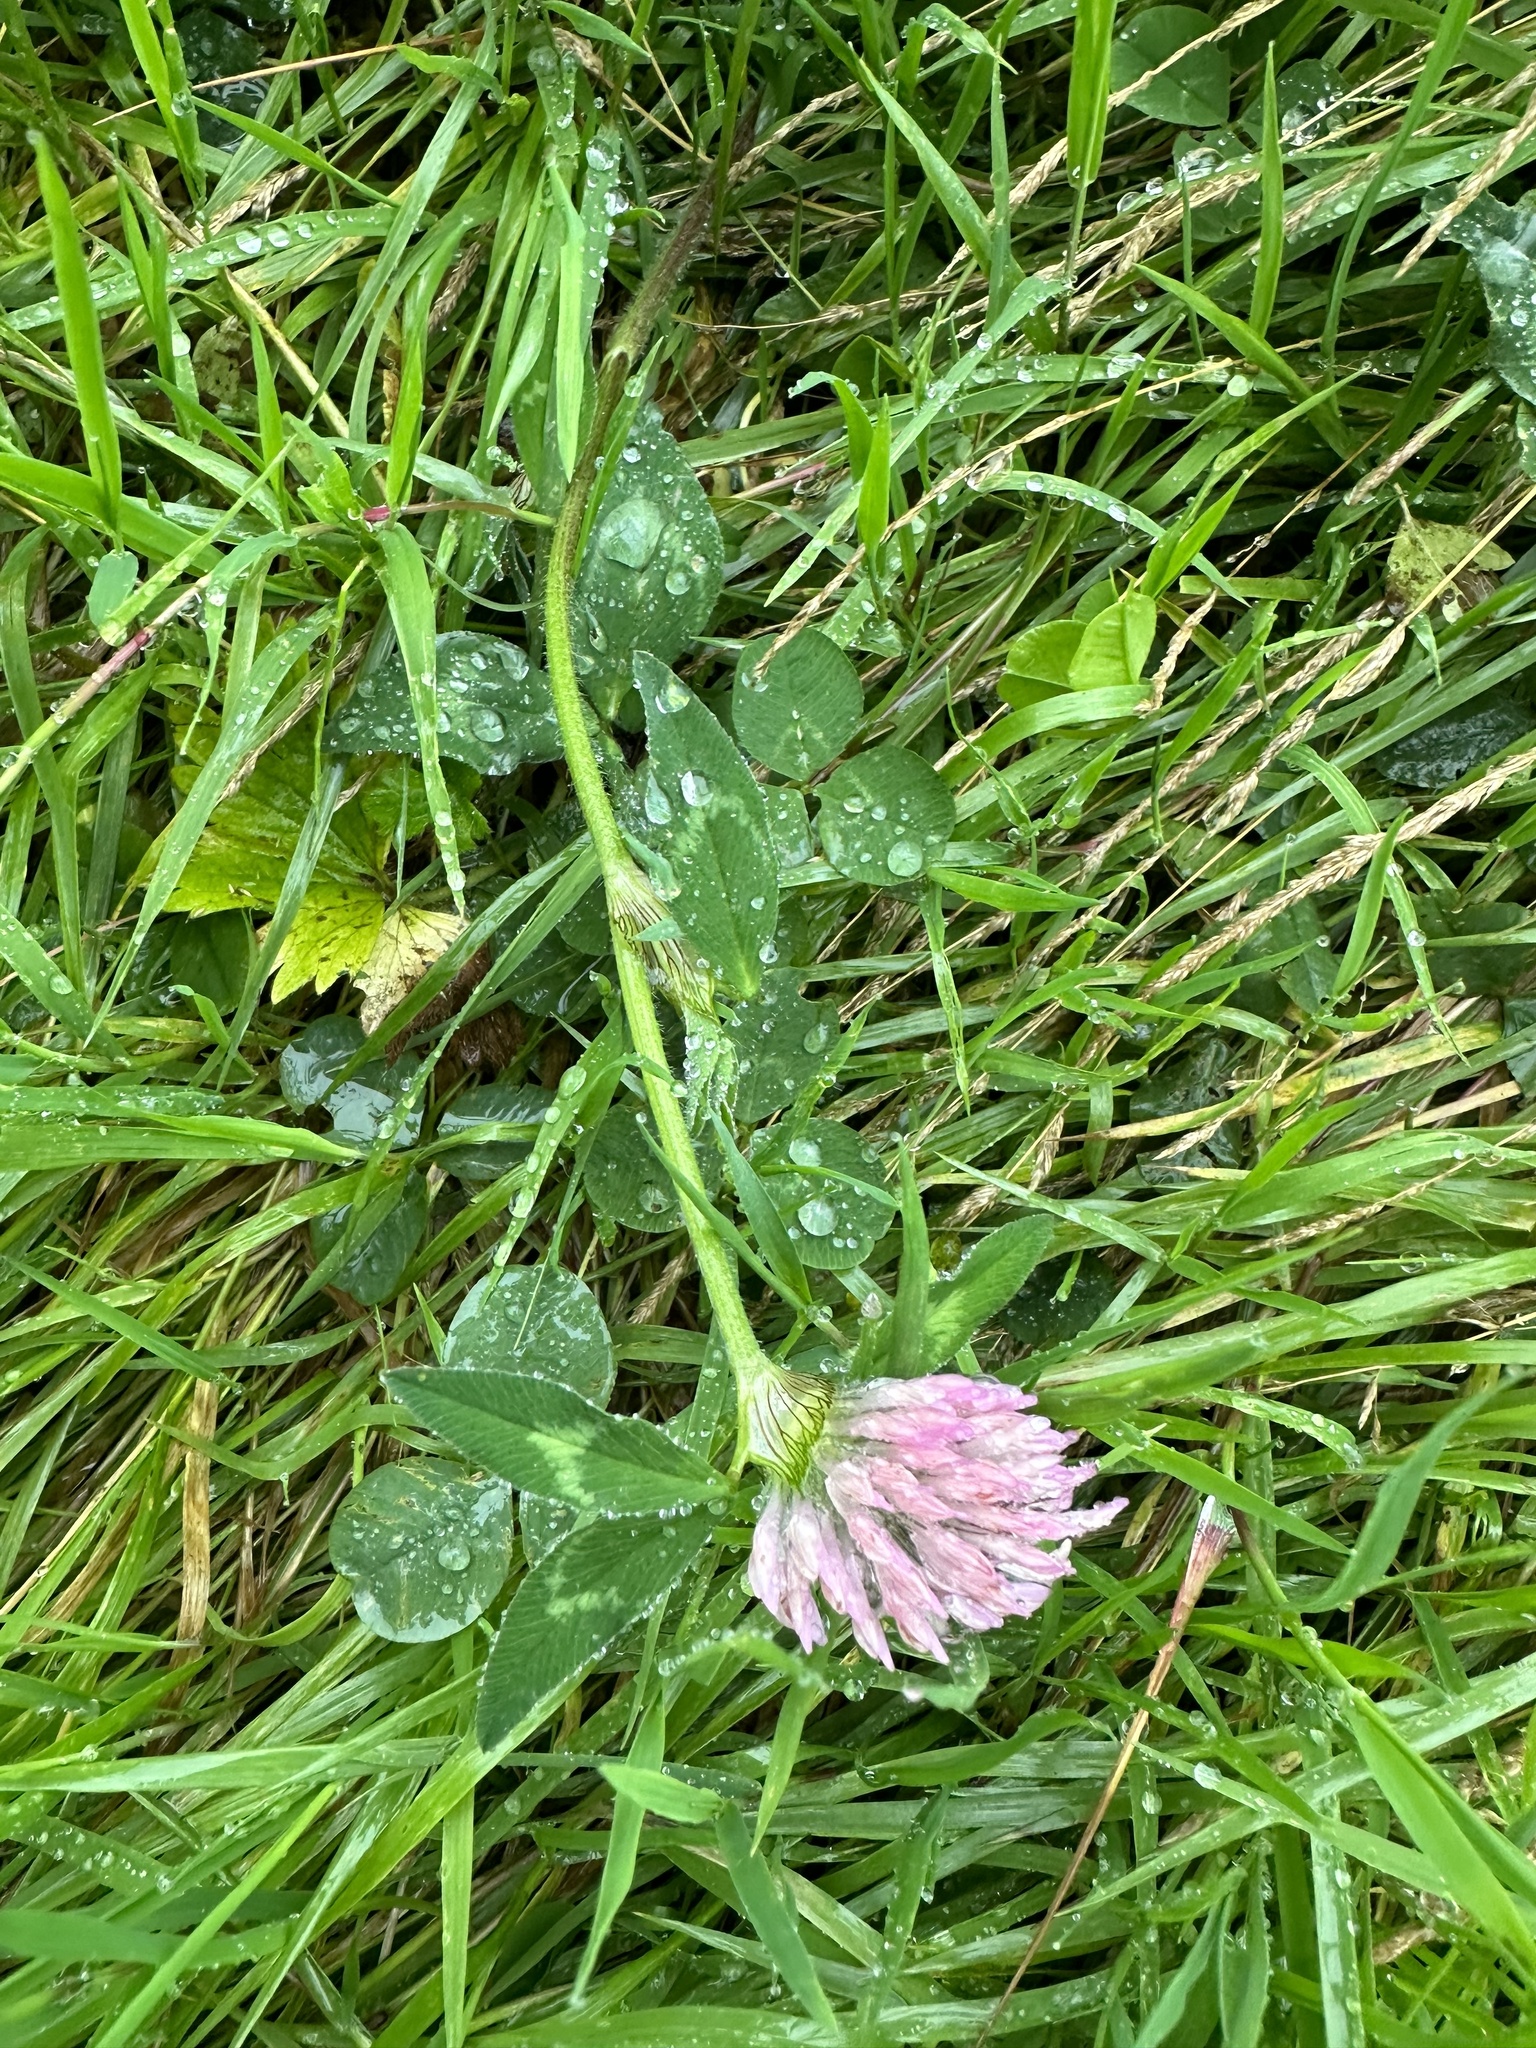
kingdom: Plantae
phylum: Tracheophyta
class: Magnoliopsida
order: Fabales
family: Fabaceae
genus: Trifolium
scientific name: Trifolium pratense
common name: Red clover
